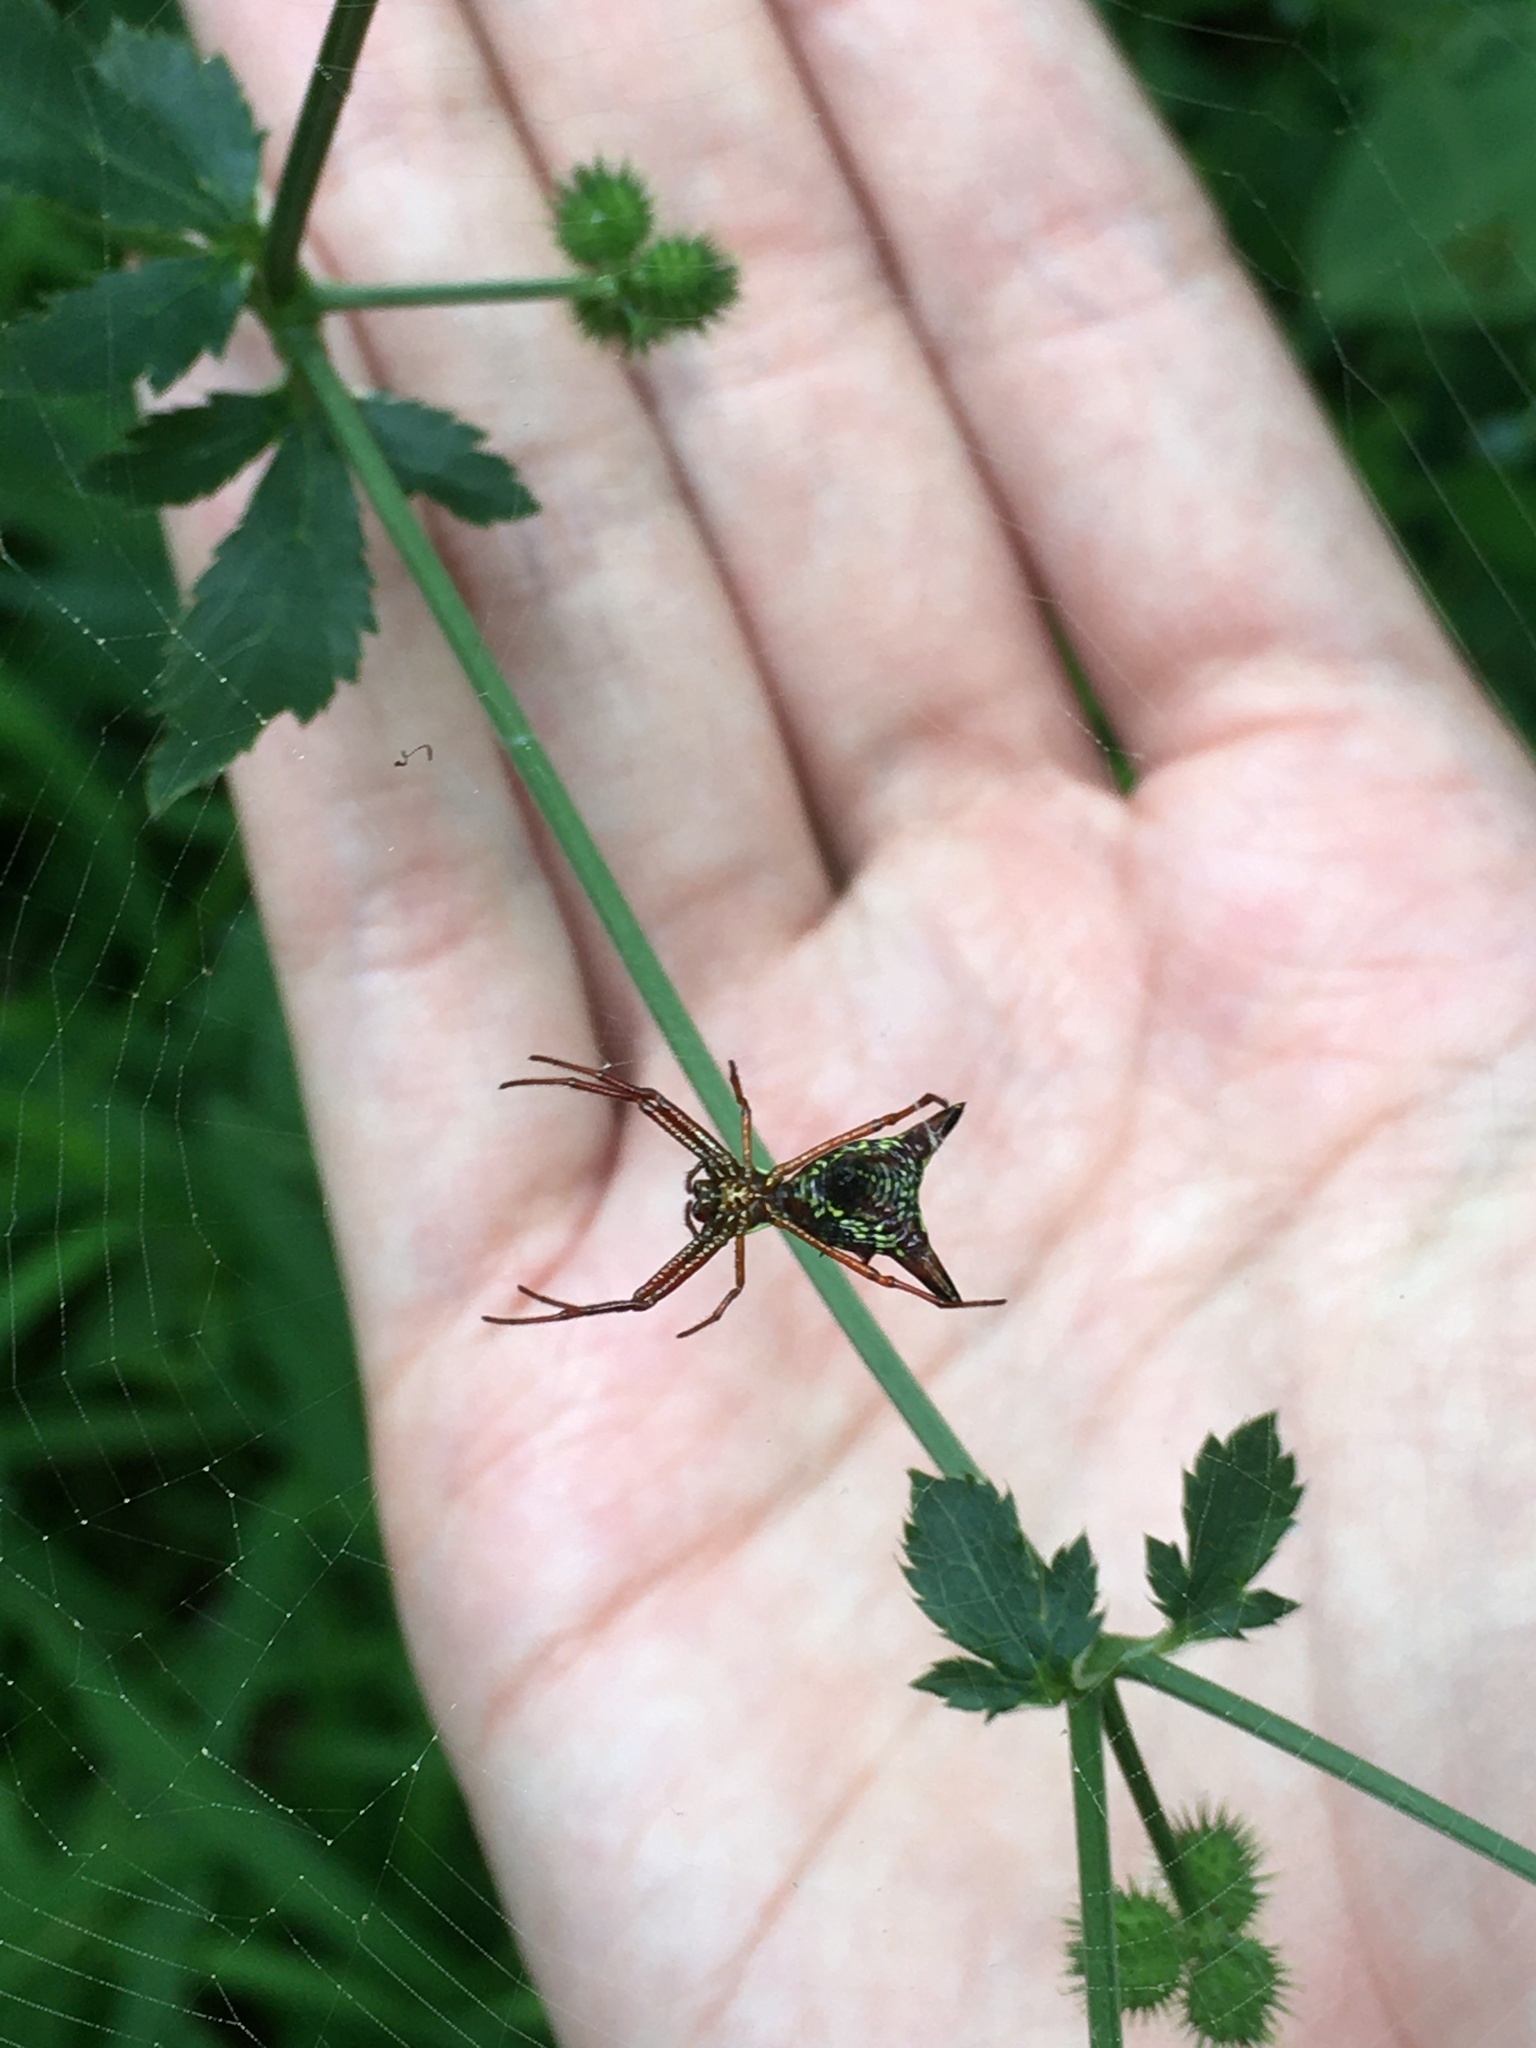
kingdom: Animalia
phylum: Arthropoda
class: Arachnida
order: Araneae
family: Araneidae
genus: Micrathena
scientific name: Micrathena sagittata
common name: Orb weavers
